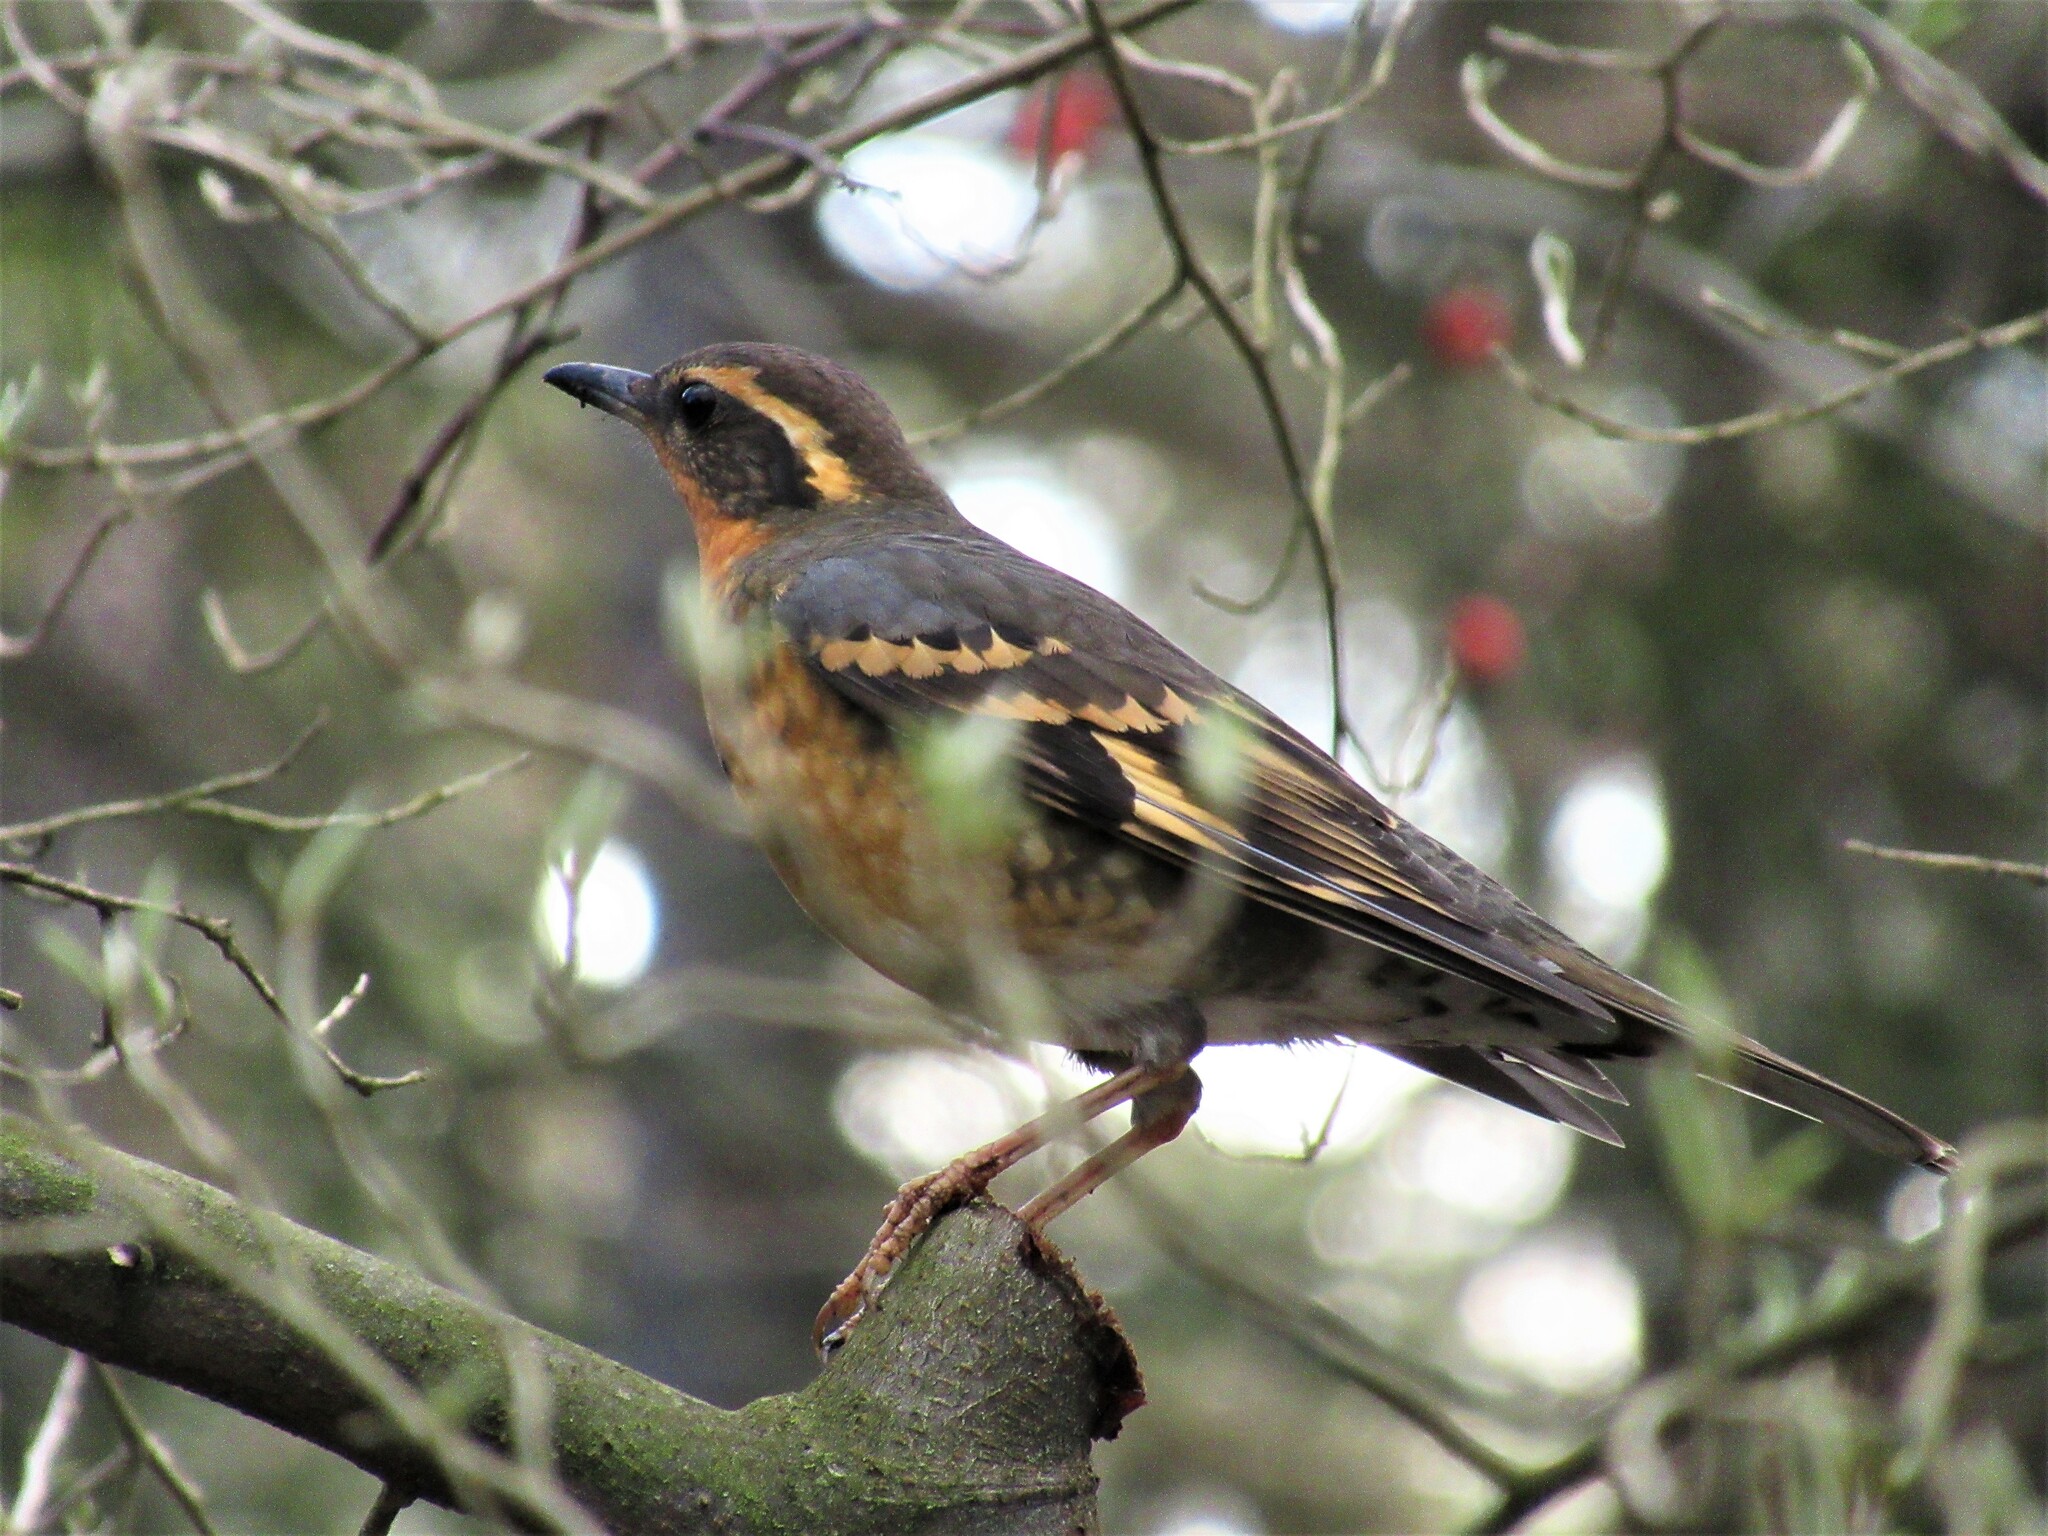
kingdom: Animalia
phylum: Chordata
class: Aves
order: Passeriformes
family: Turdidae
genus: Ixoreus
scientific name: Ixoreus naevius
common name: Varied thrush
